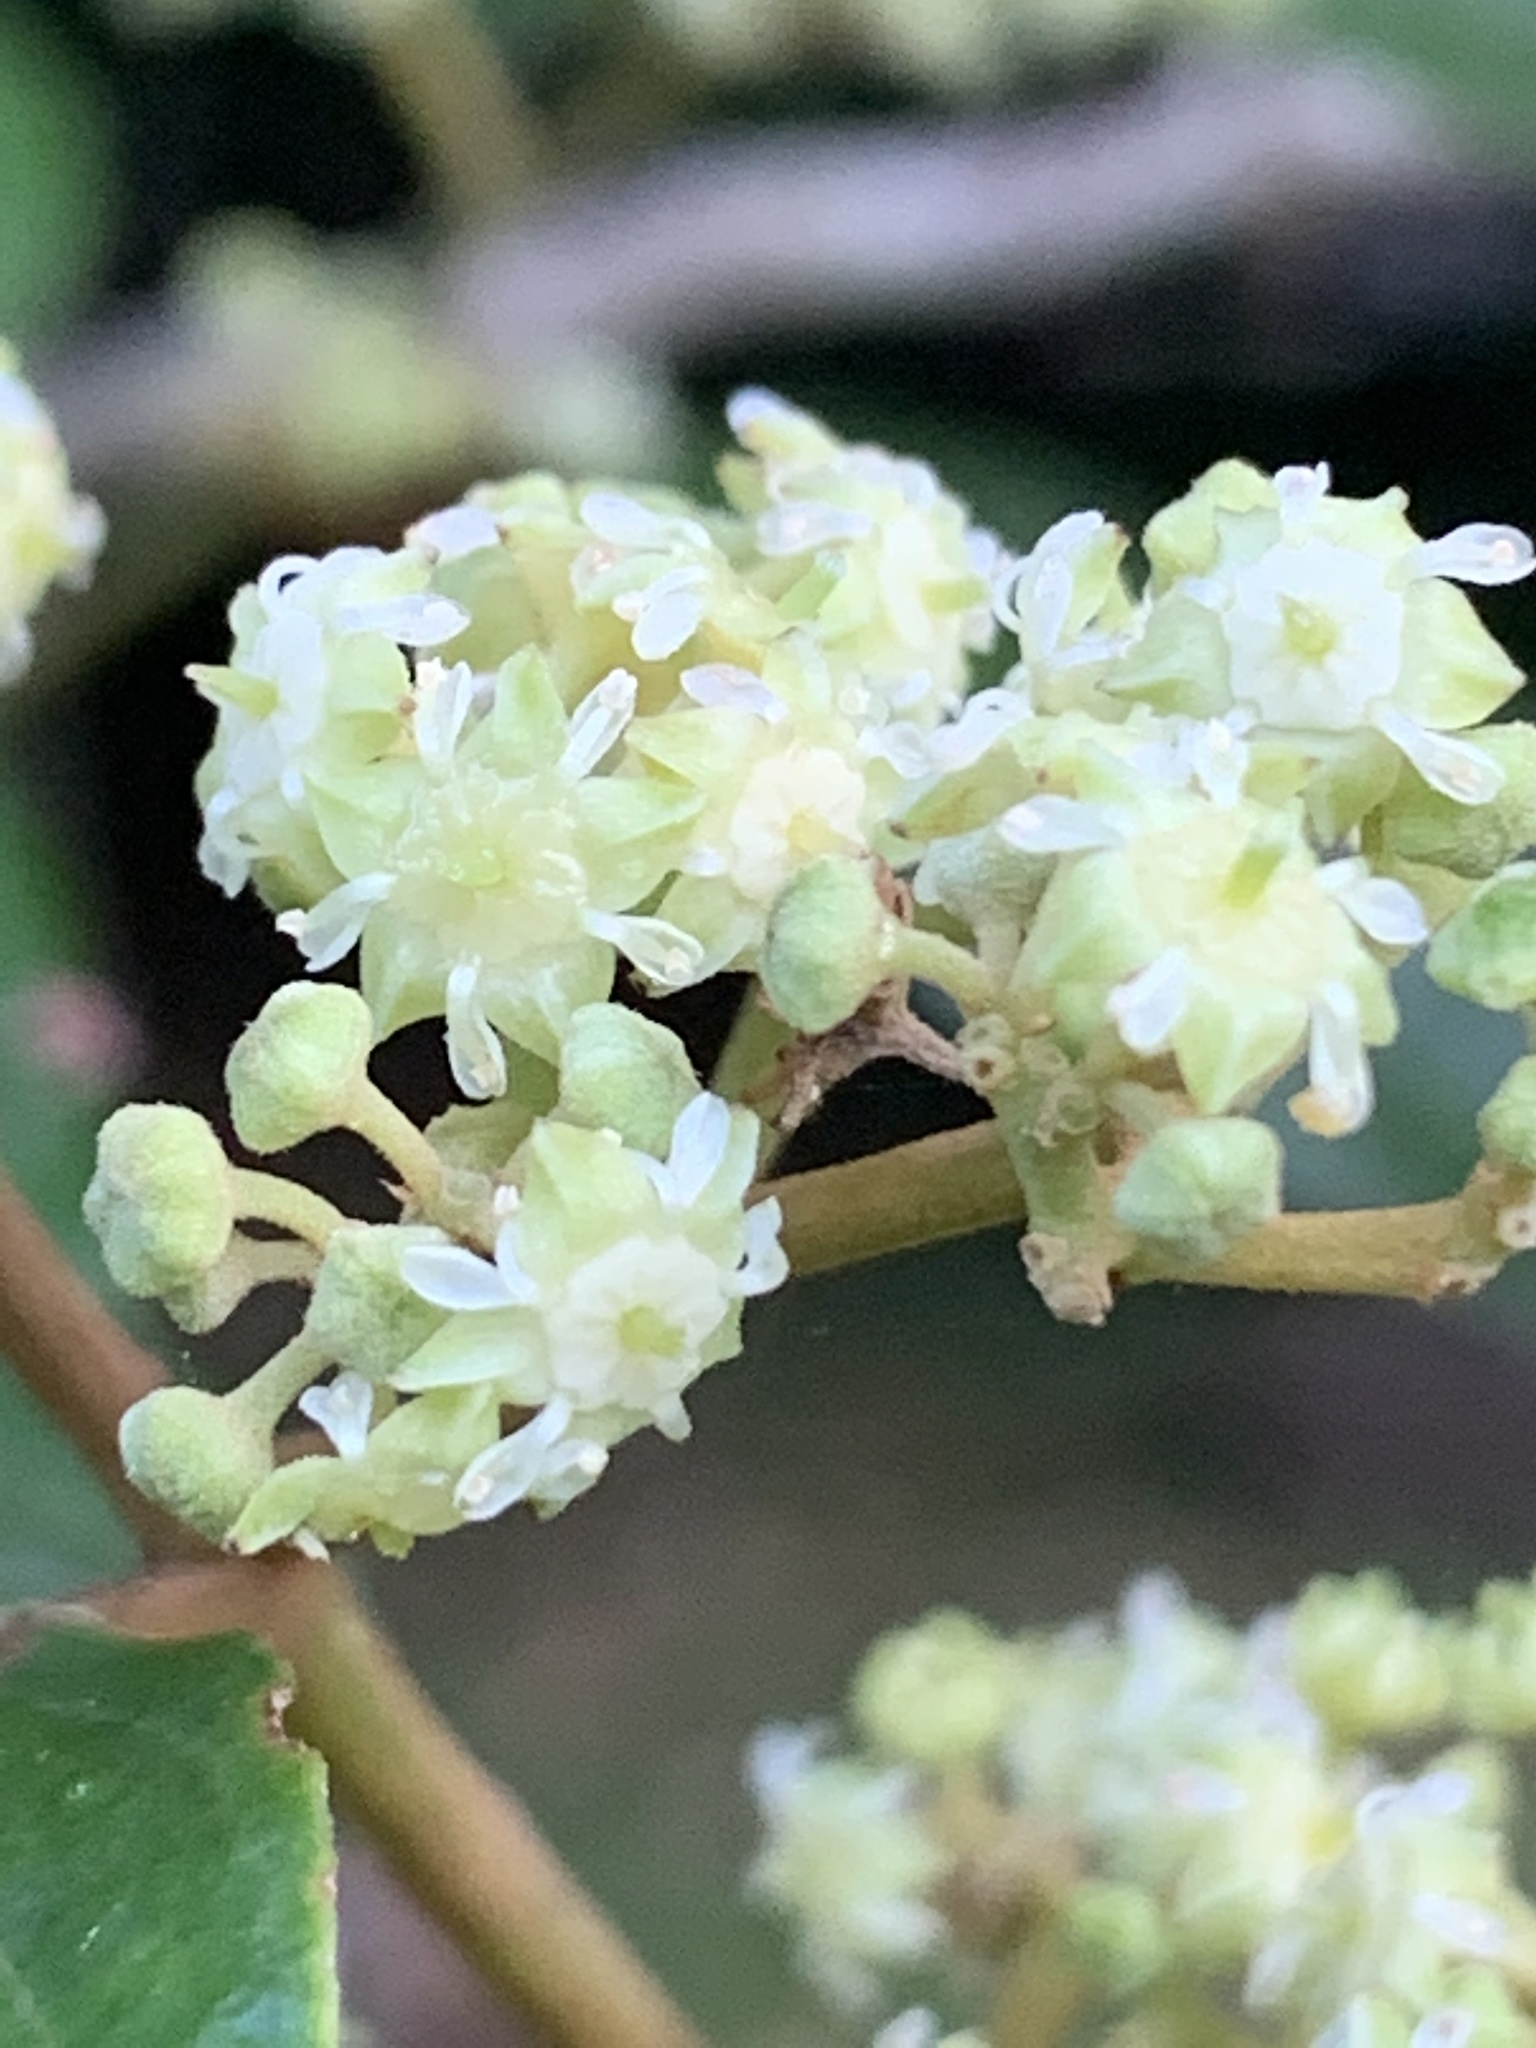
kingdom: Plantae
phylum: Tracheophyta
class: Magnoliopsida
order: Rosales
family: Rhamnaceae
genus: Alphitonia
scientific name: Alphitonia excelsa
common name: Red ash
